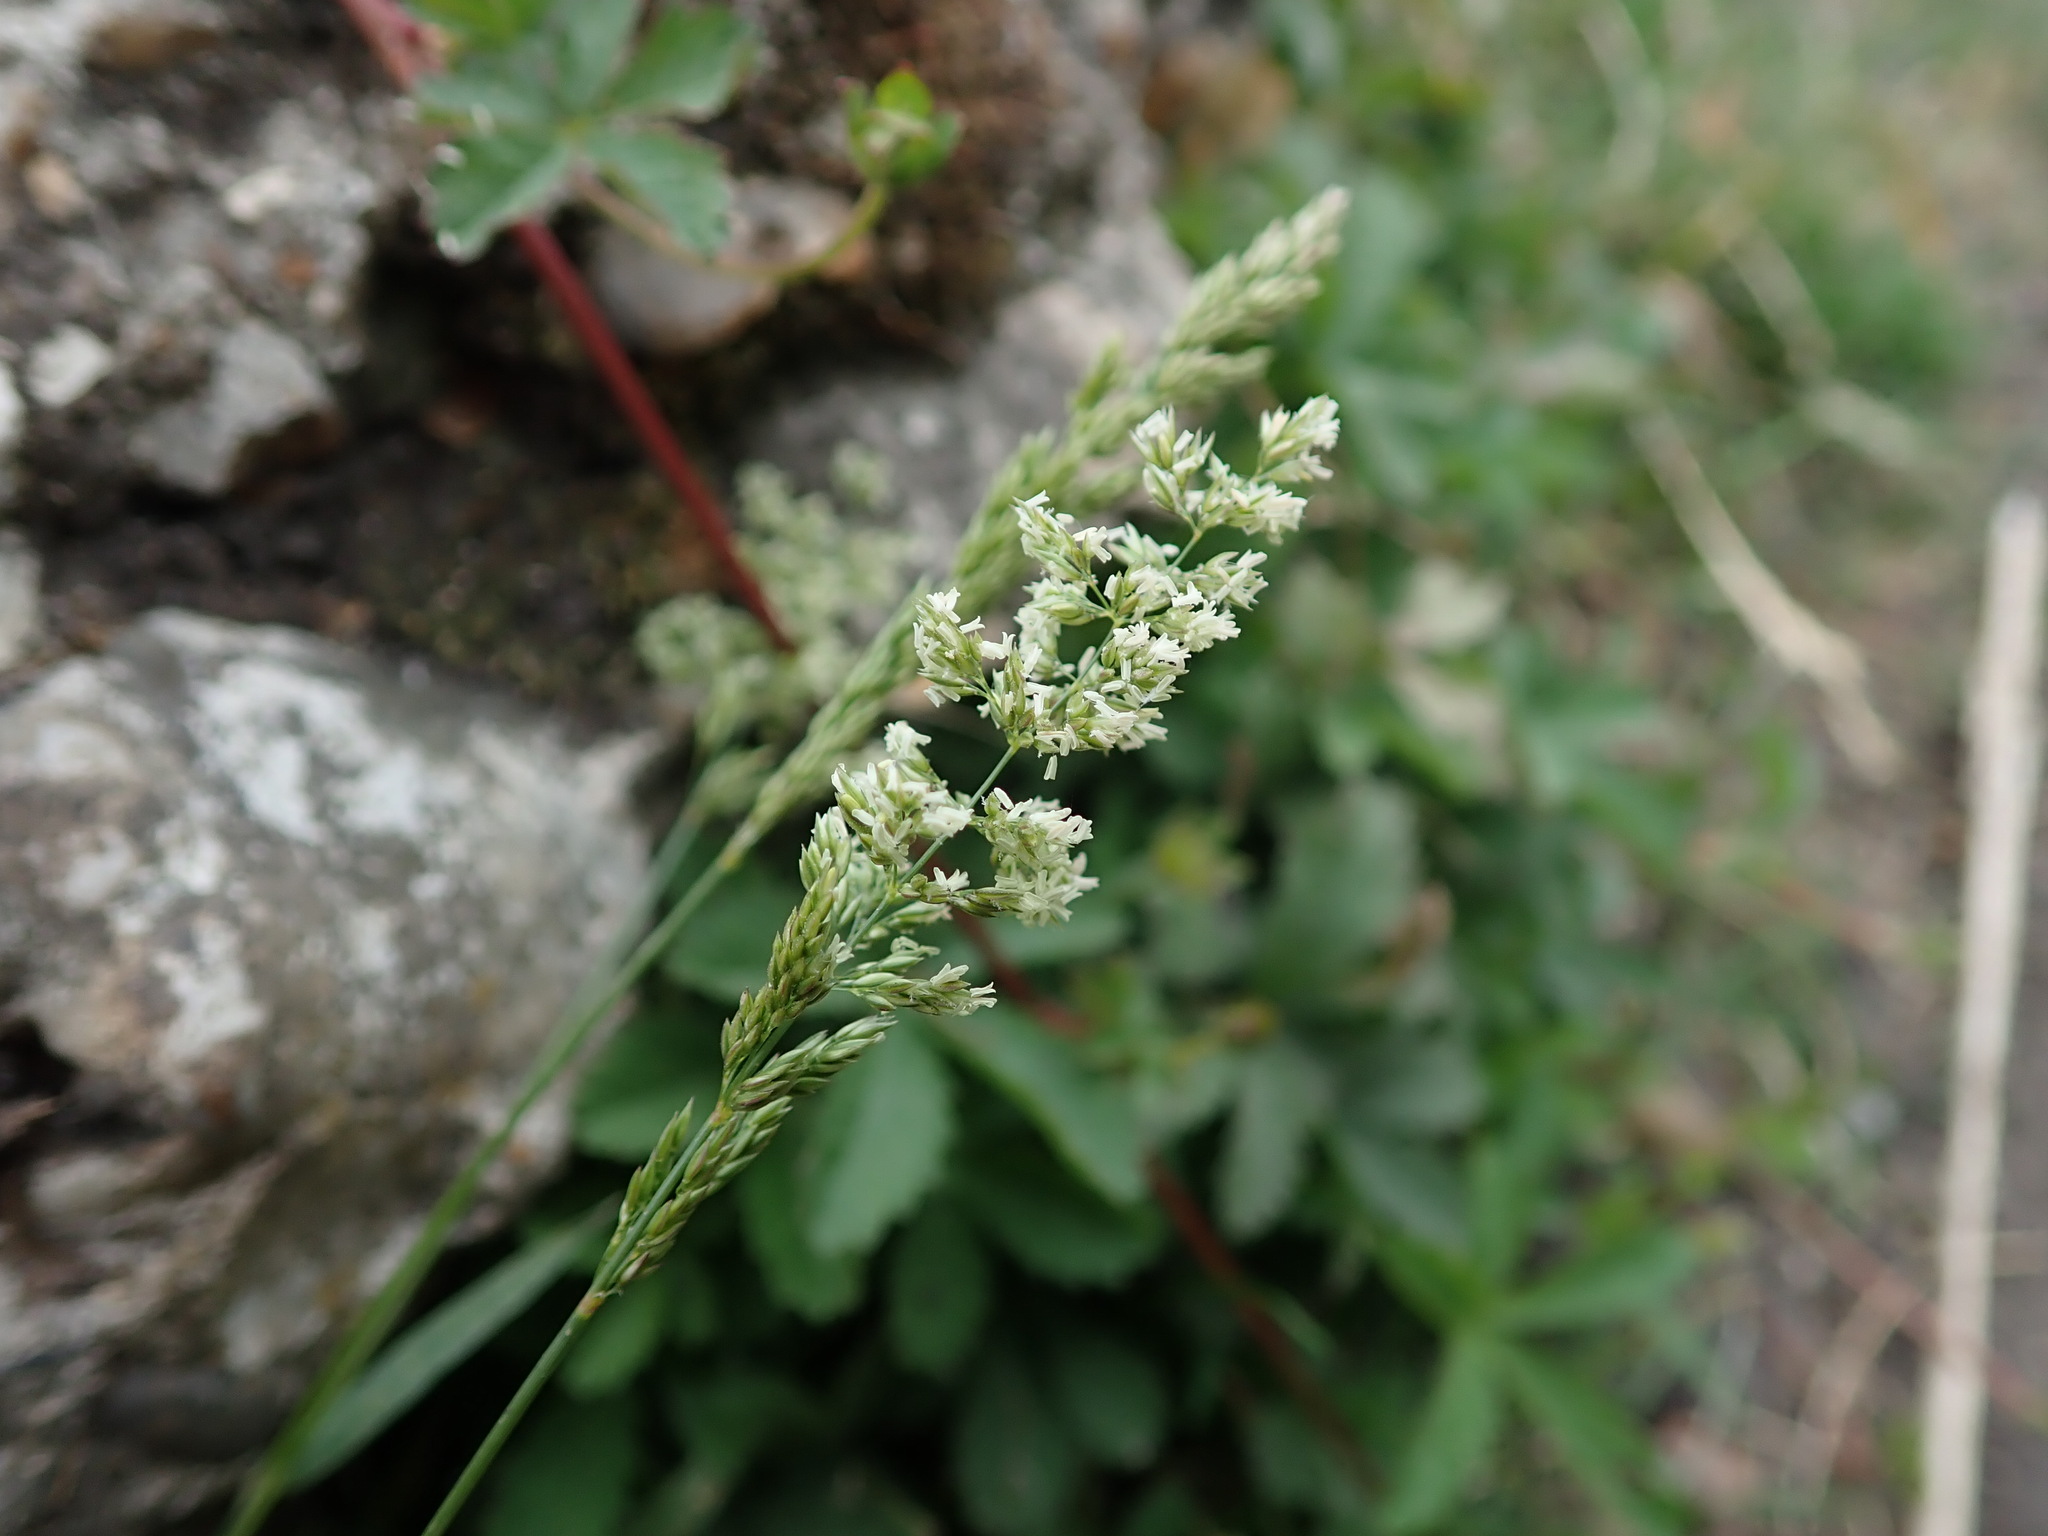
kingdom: Plantae
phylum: Tracheophyta
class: Liliopsida
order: Poales
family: Poaceae
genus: Polypogon
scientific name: Polypogon viridis
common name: Water bent
